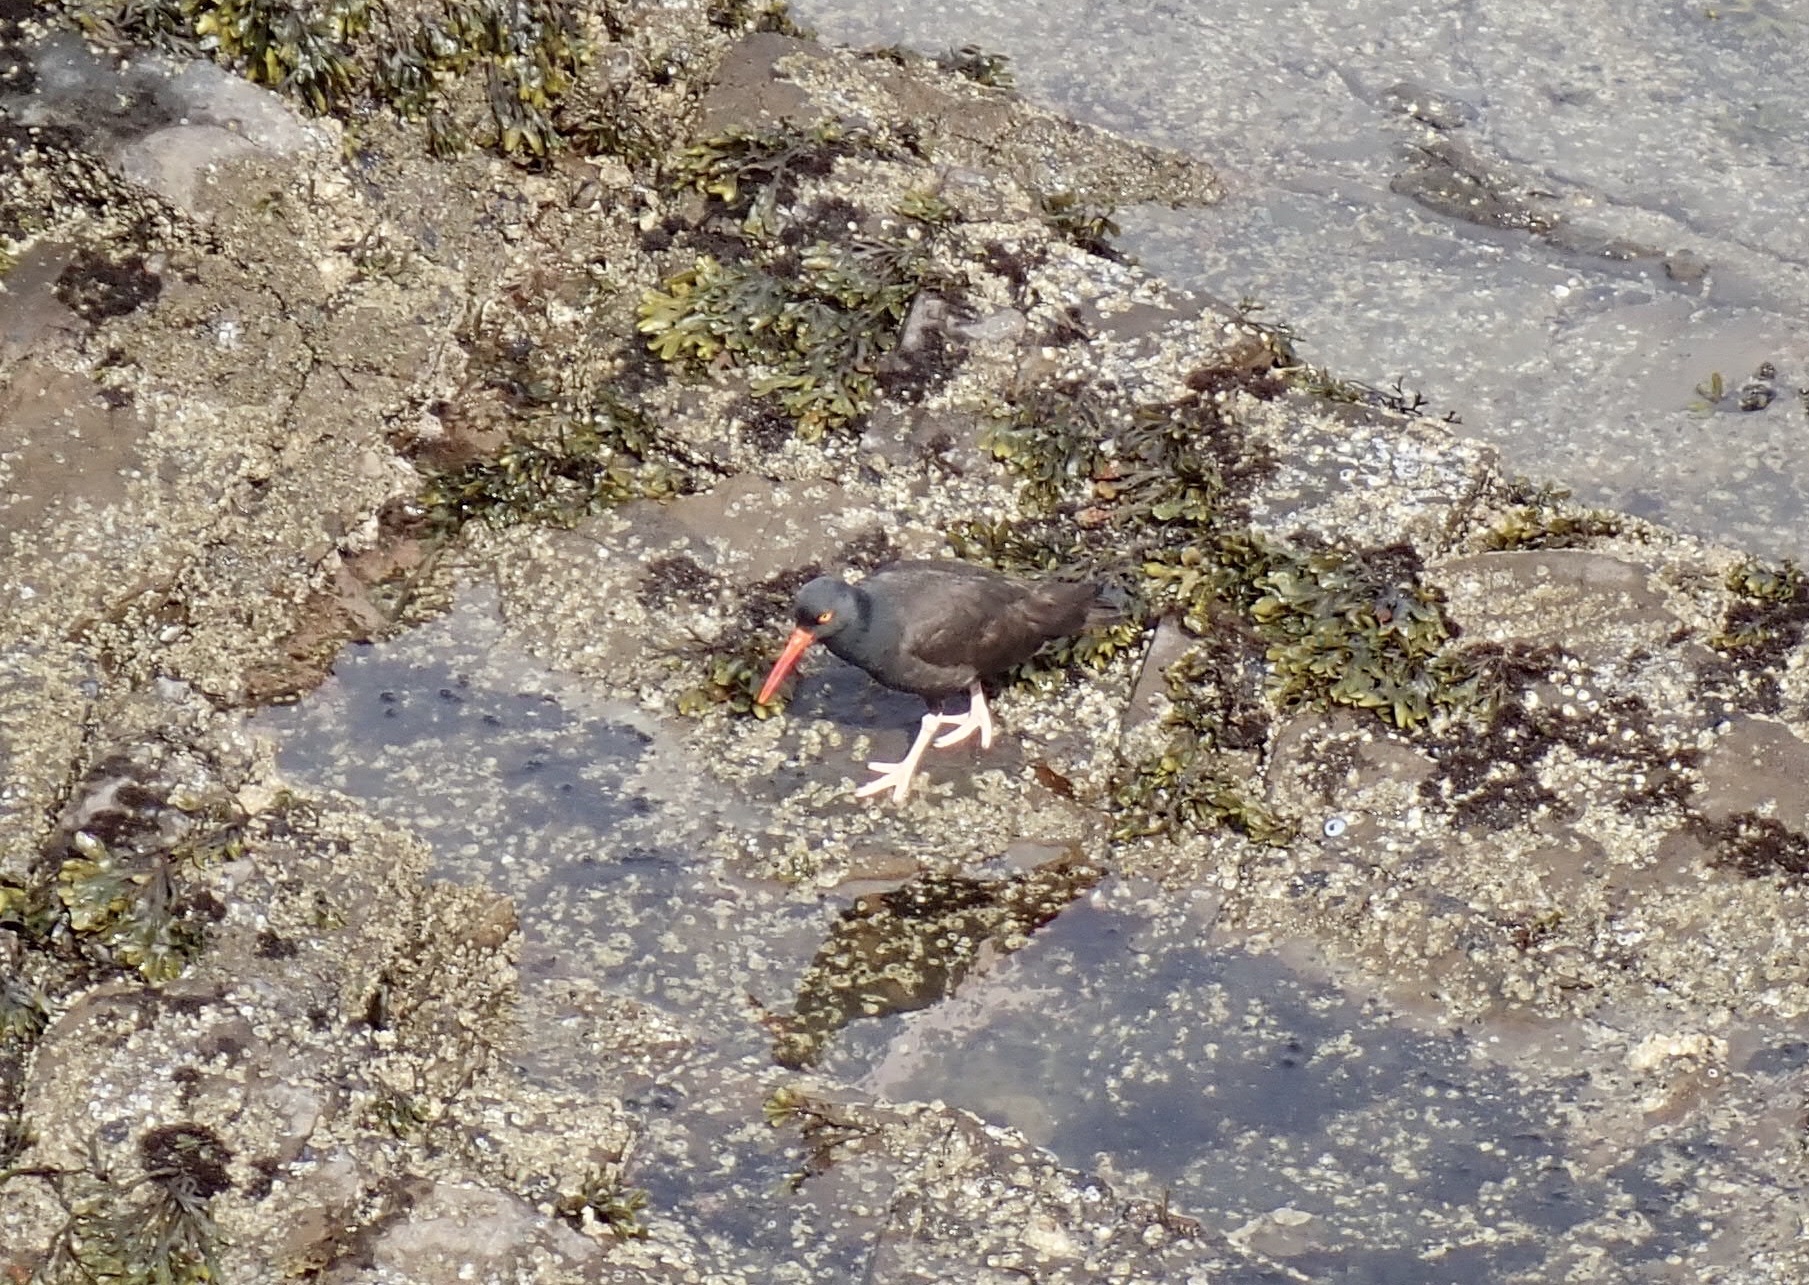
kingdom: Animalia
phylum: Chordata
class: Aves
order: Charadriiformes
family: Haematopodidae
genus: Haematopus
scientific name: Haematopus bachmani
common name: Black oystercatcher
